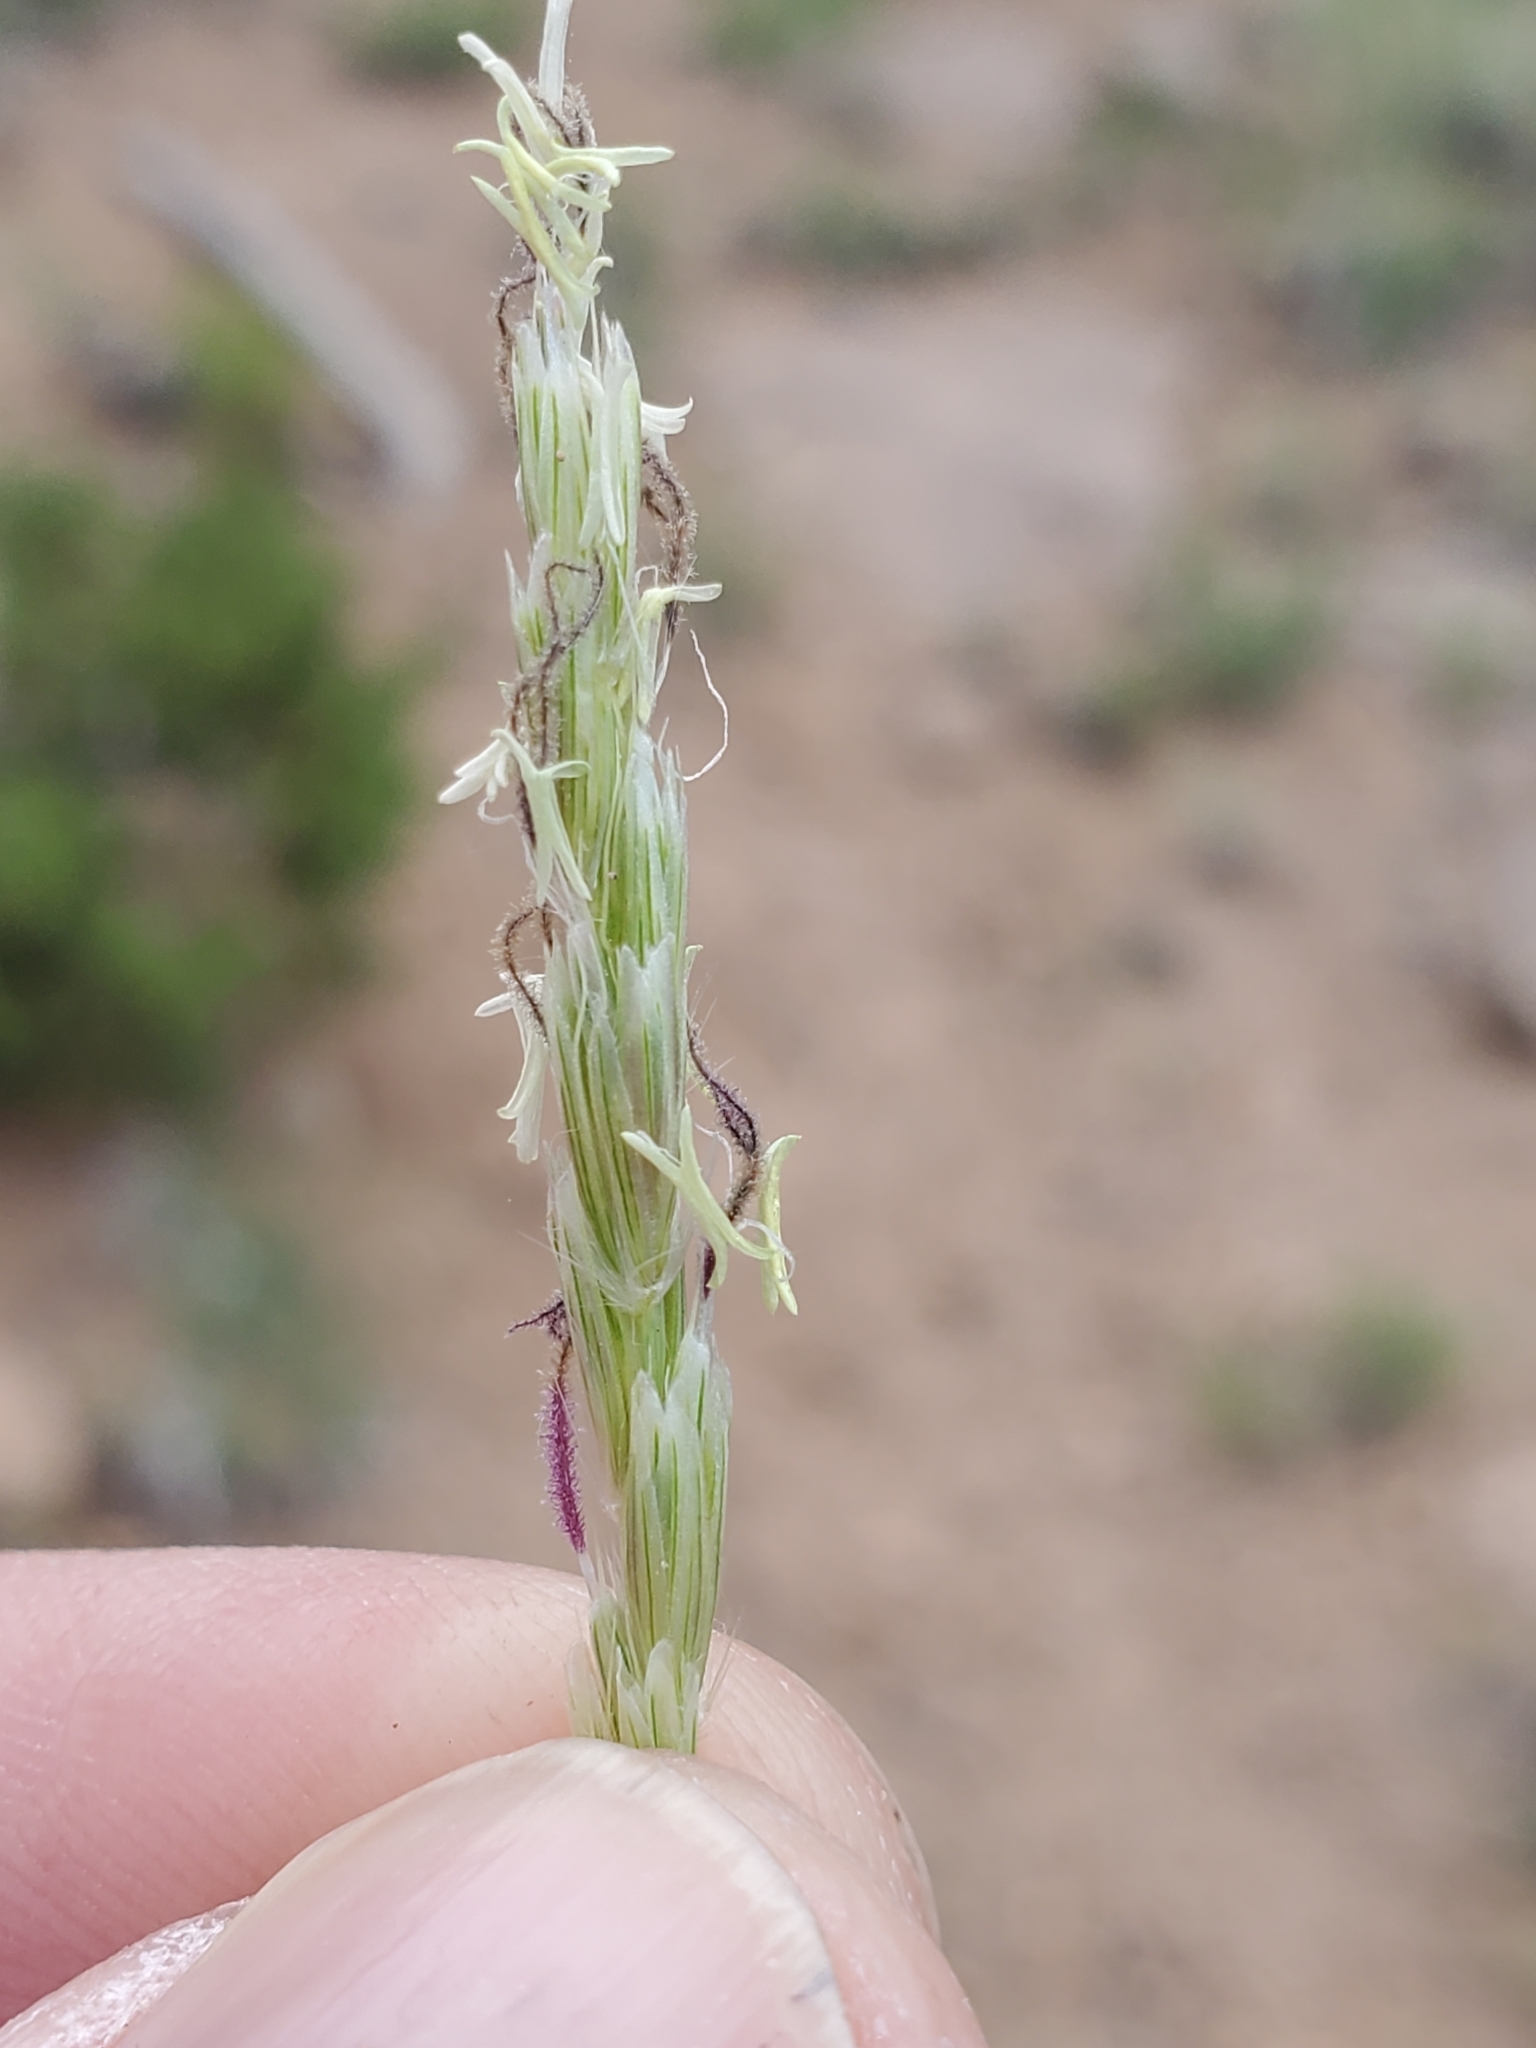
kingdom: Plantae
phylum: Tracheophyta
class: Liliopsida
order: Poales
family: Poaceae
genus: Hilaria
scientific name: Hilaria jamesii
